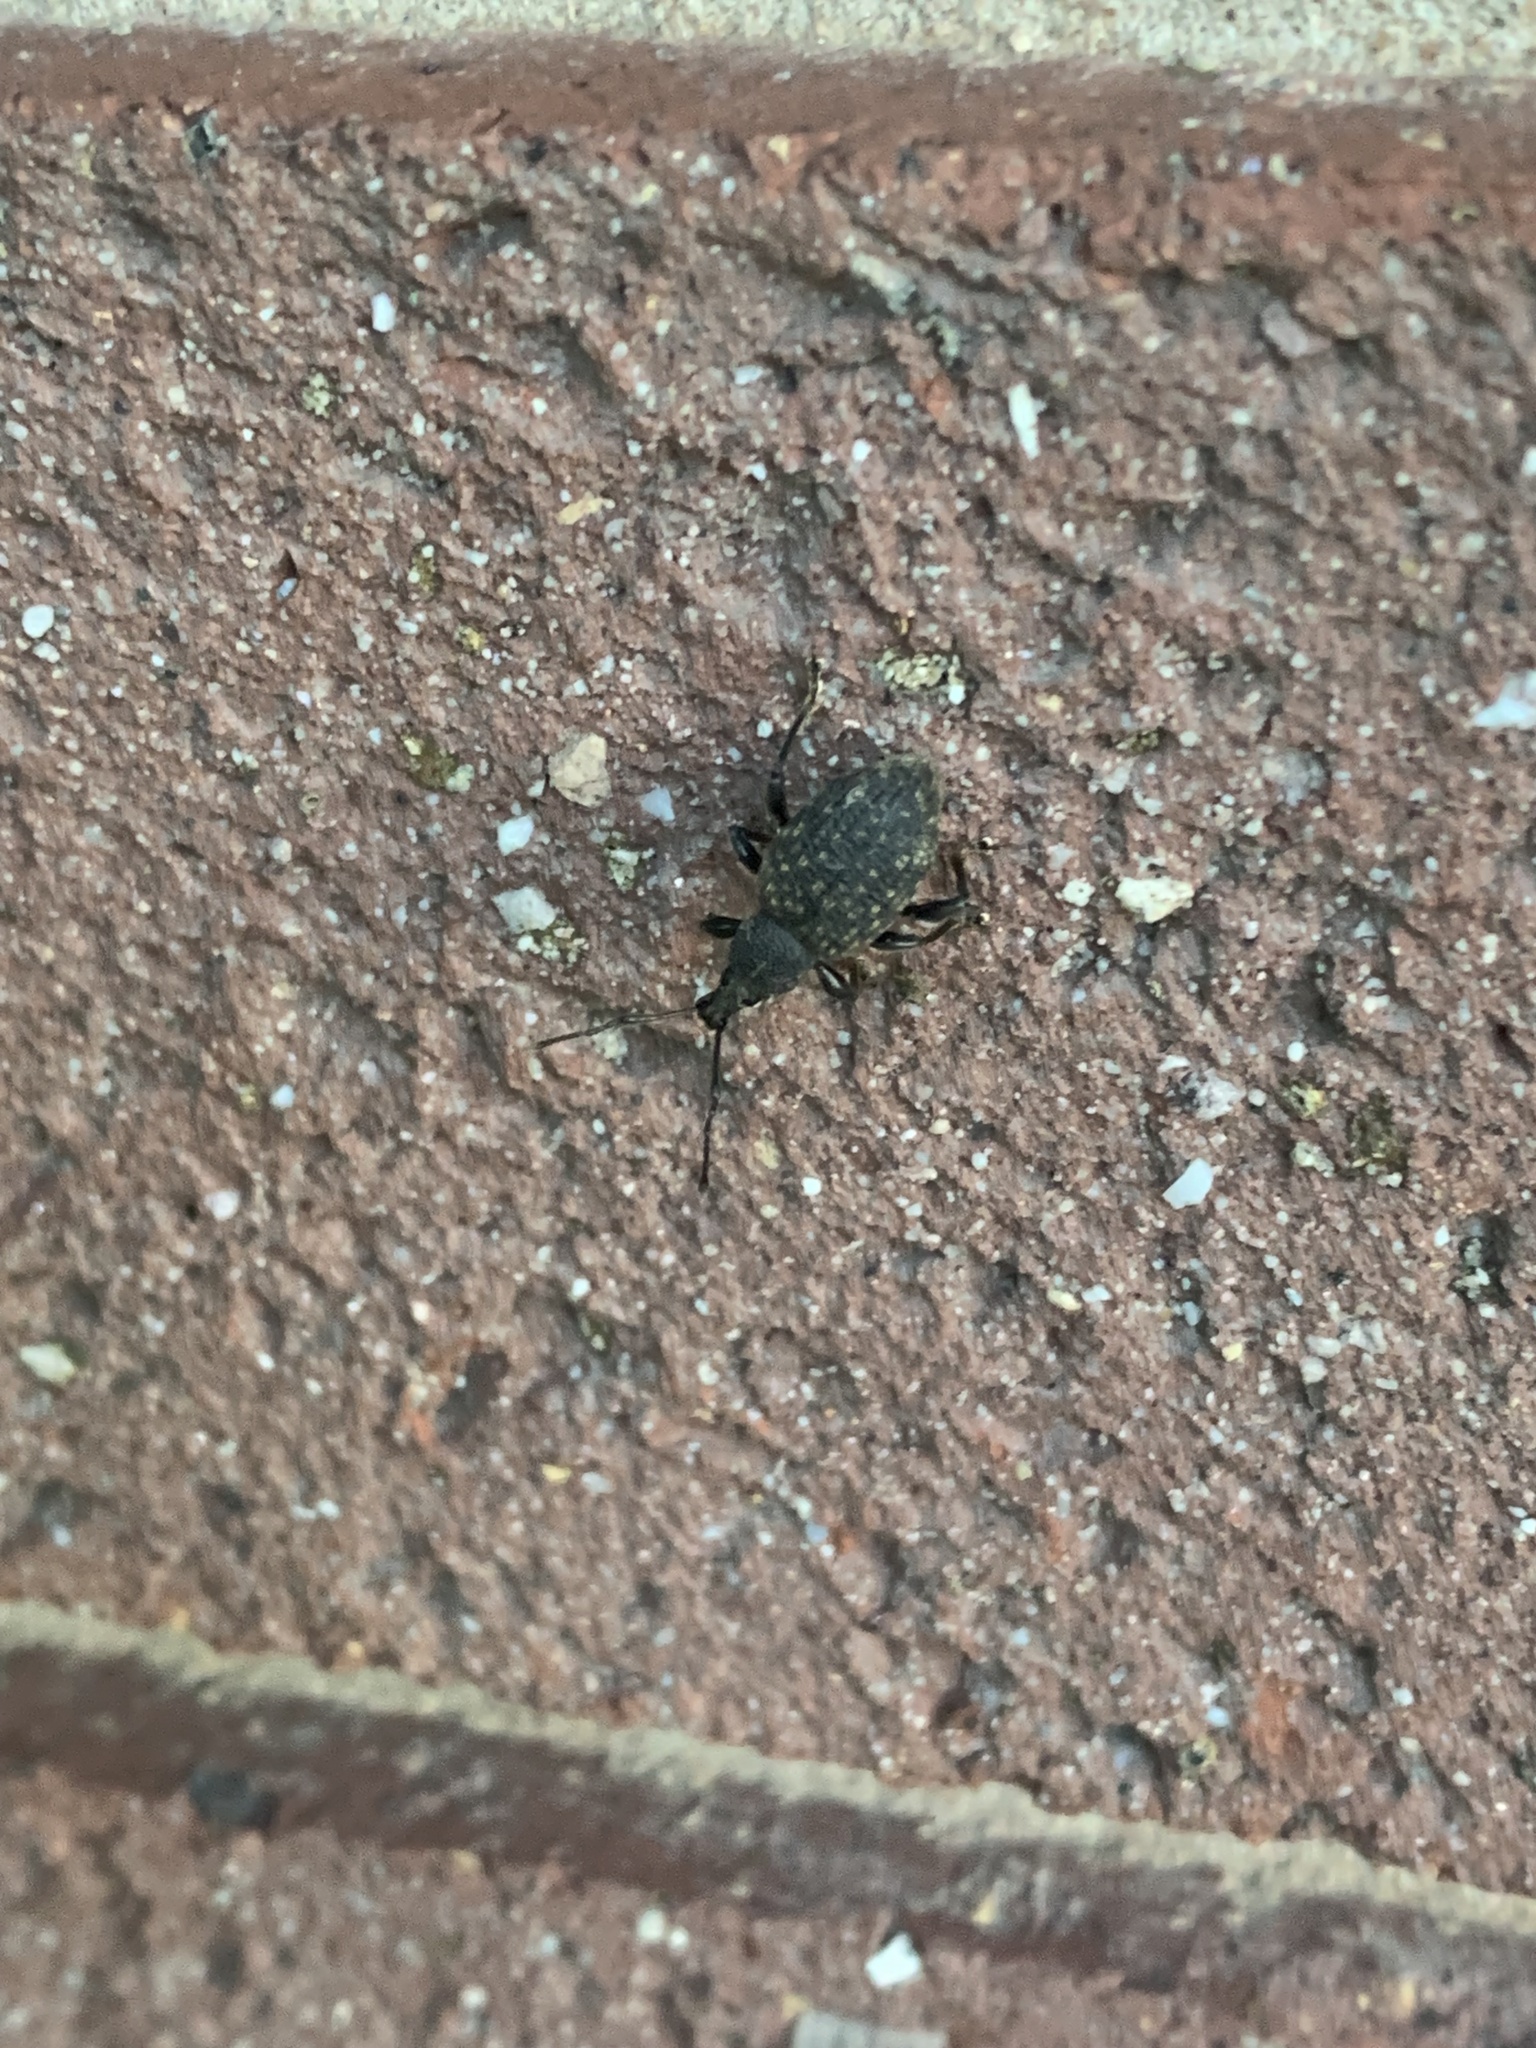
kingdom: Animalia
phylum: Arthropoda
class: Insecta
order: Coleoptera
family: Curculionidae
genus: Otiorhynchus
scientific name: Otiorhynchus sulcatus
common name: Black vine weevil
